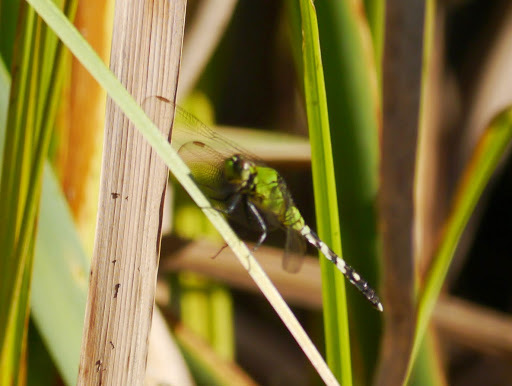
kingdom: Animalia
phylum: Arthropoda
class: Insecta
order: Odonata
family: Libellulidae
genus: Erythemis
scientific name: Erythemis simplicicollis
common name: Eastern pondhawk
